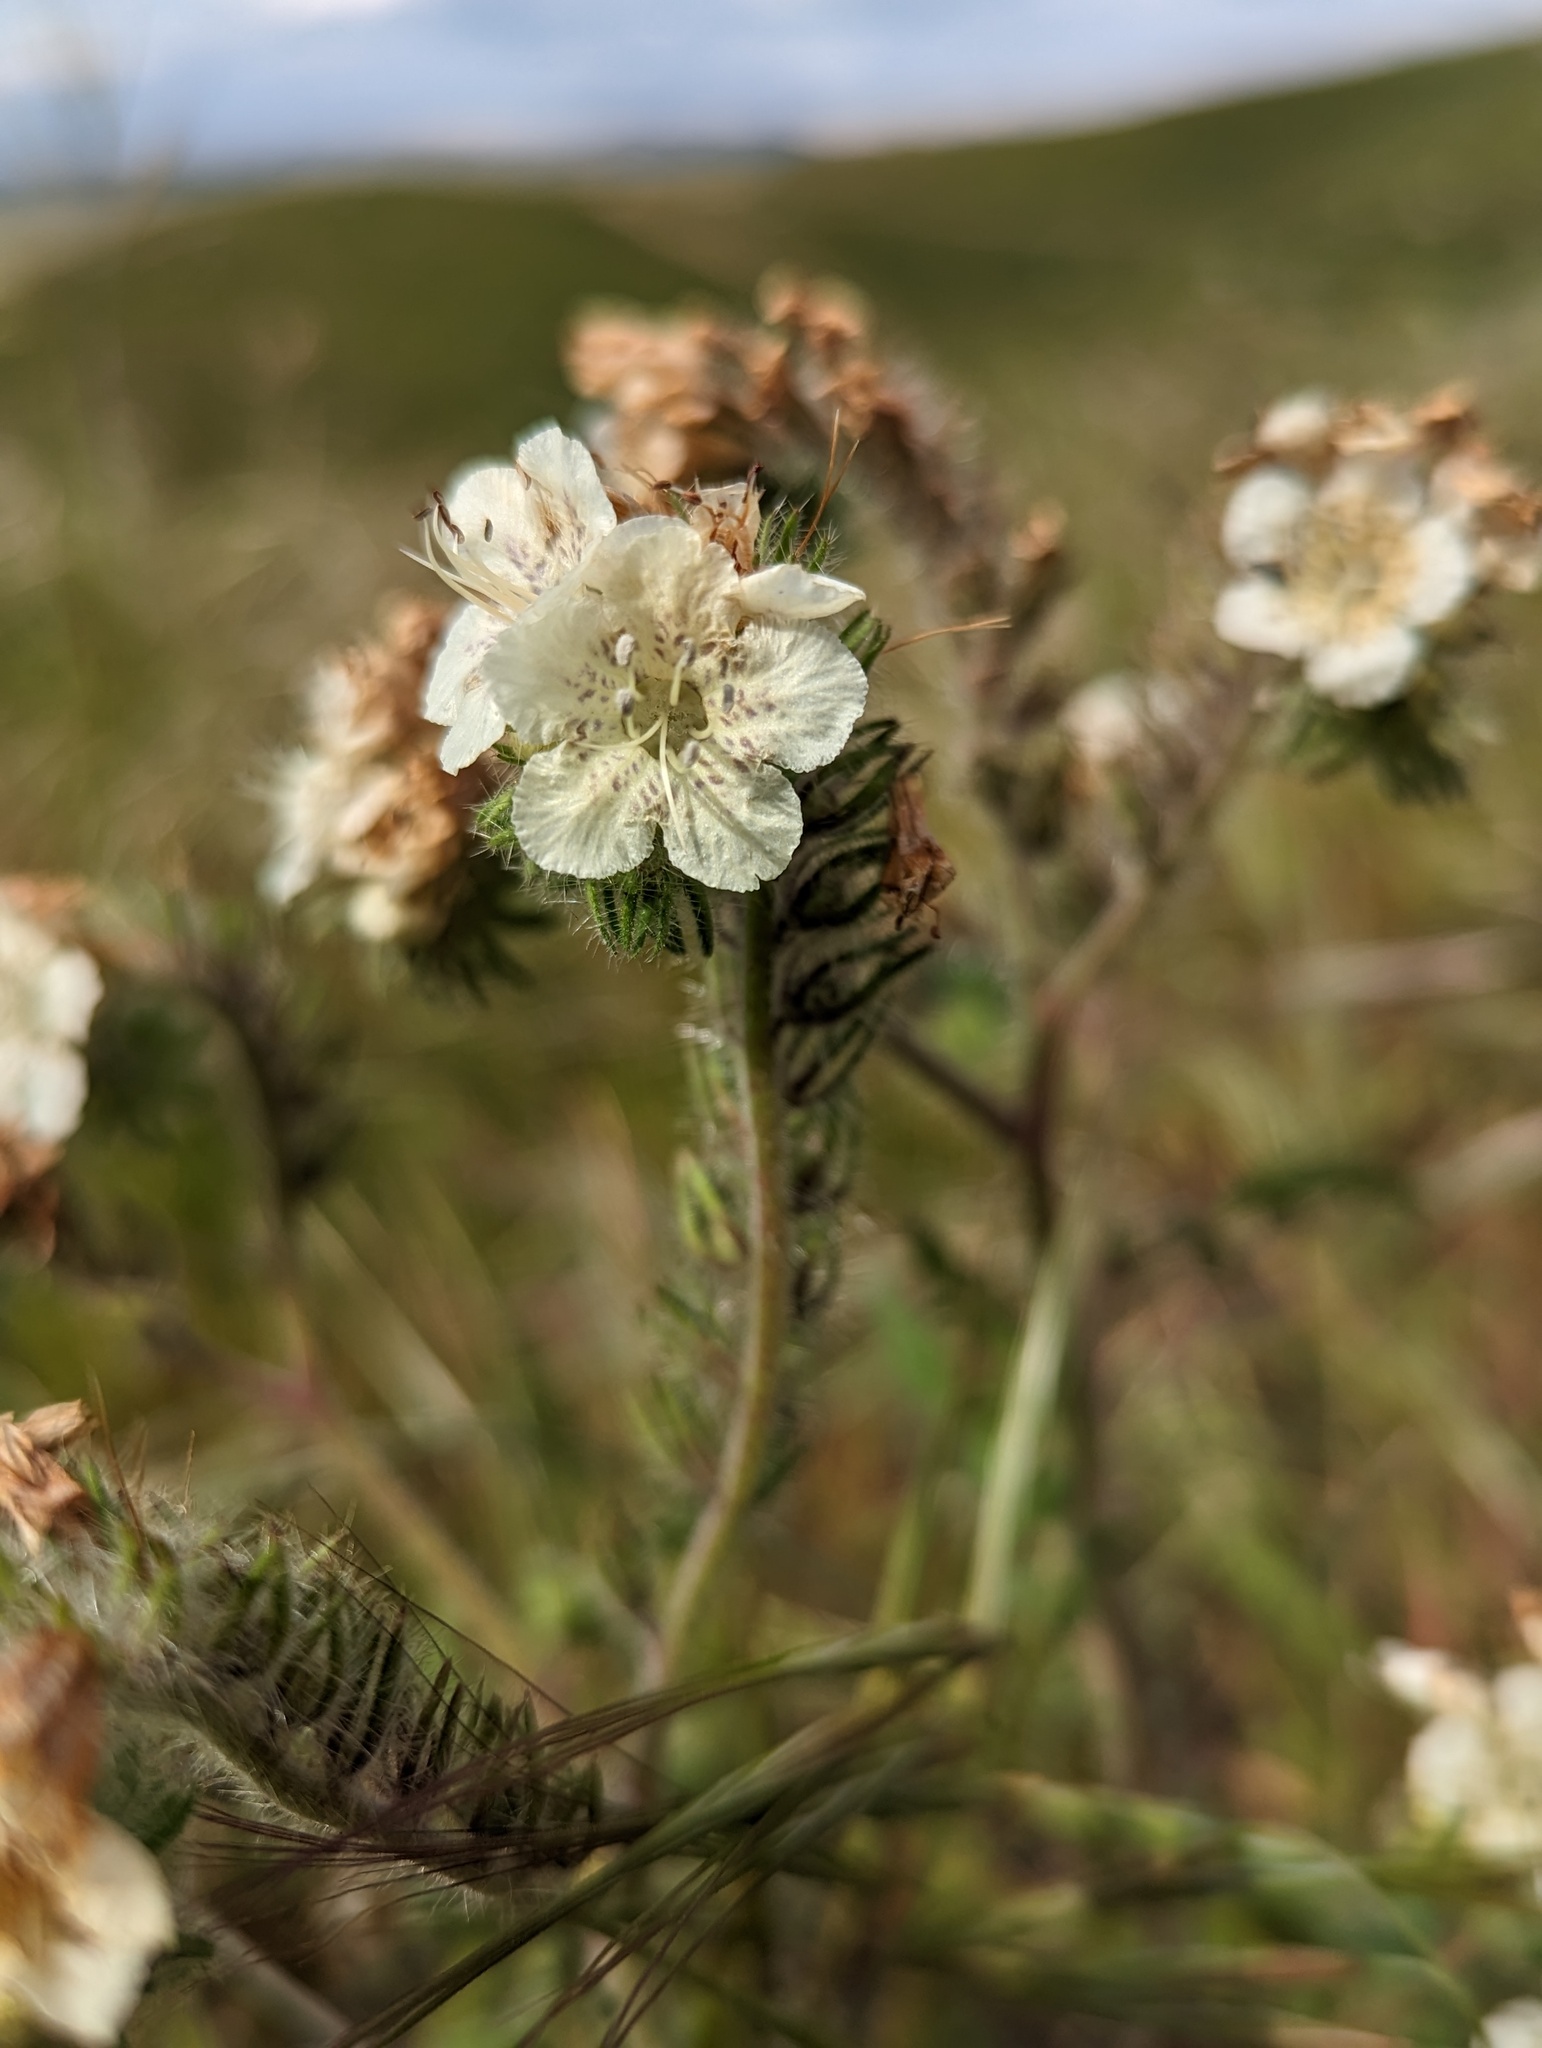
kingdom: Plantae
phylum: Tracheophyta
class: Magnoliopsida
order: Boraginales
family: Hydrophyllaceae
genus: Phacelia
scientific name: Phacelia cicutaria
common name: Caterpillar phacelia
